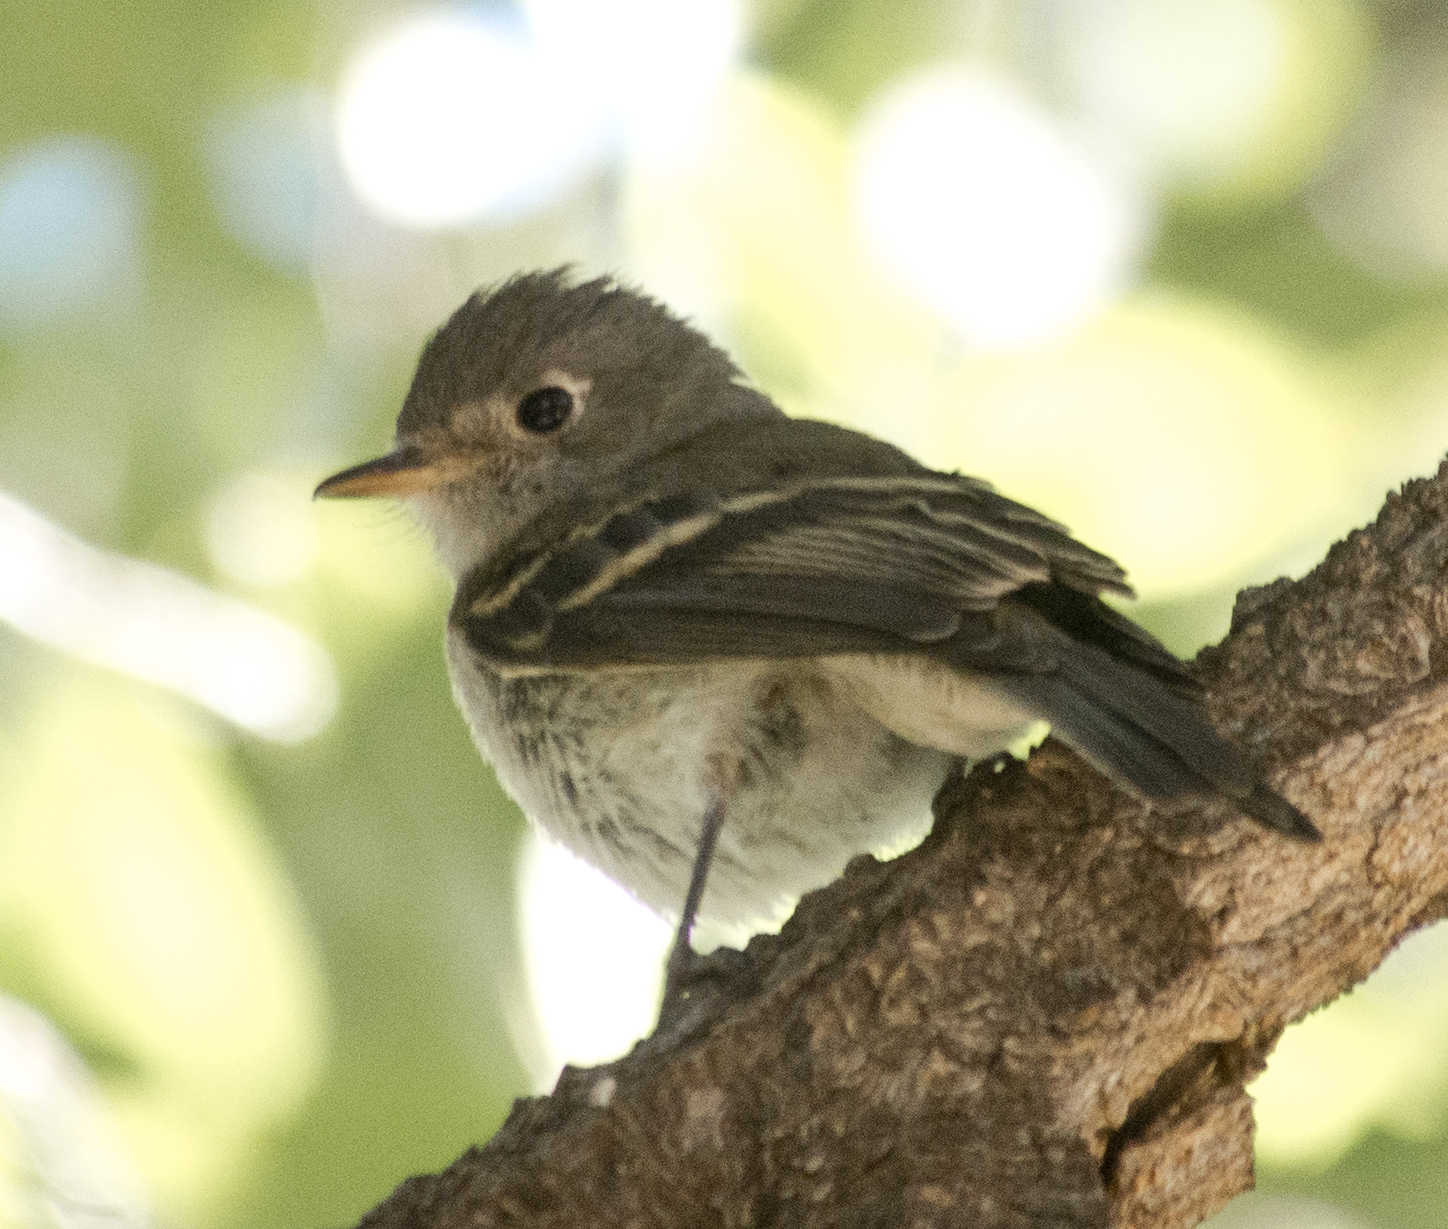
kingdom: Animalia
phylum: Chordata
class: Aves
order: Passeriformes
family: Tyrannidae
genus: Empidonax
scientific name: Empidonax oberholseri
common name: Dusky flycatcher
